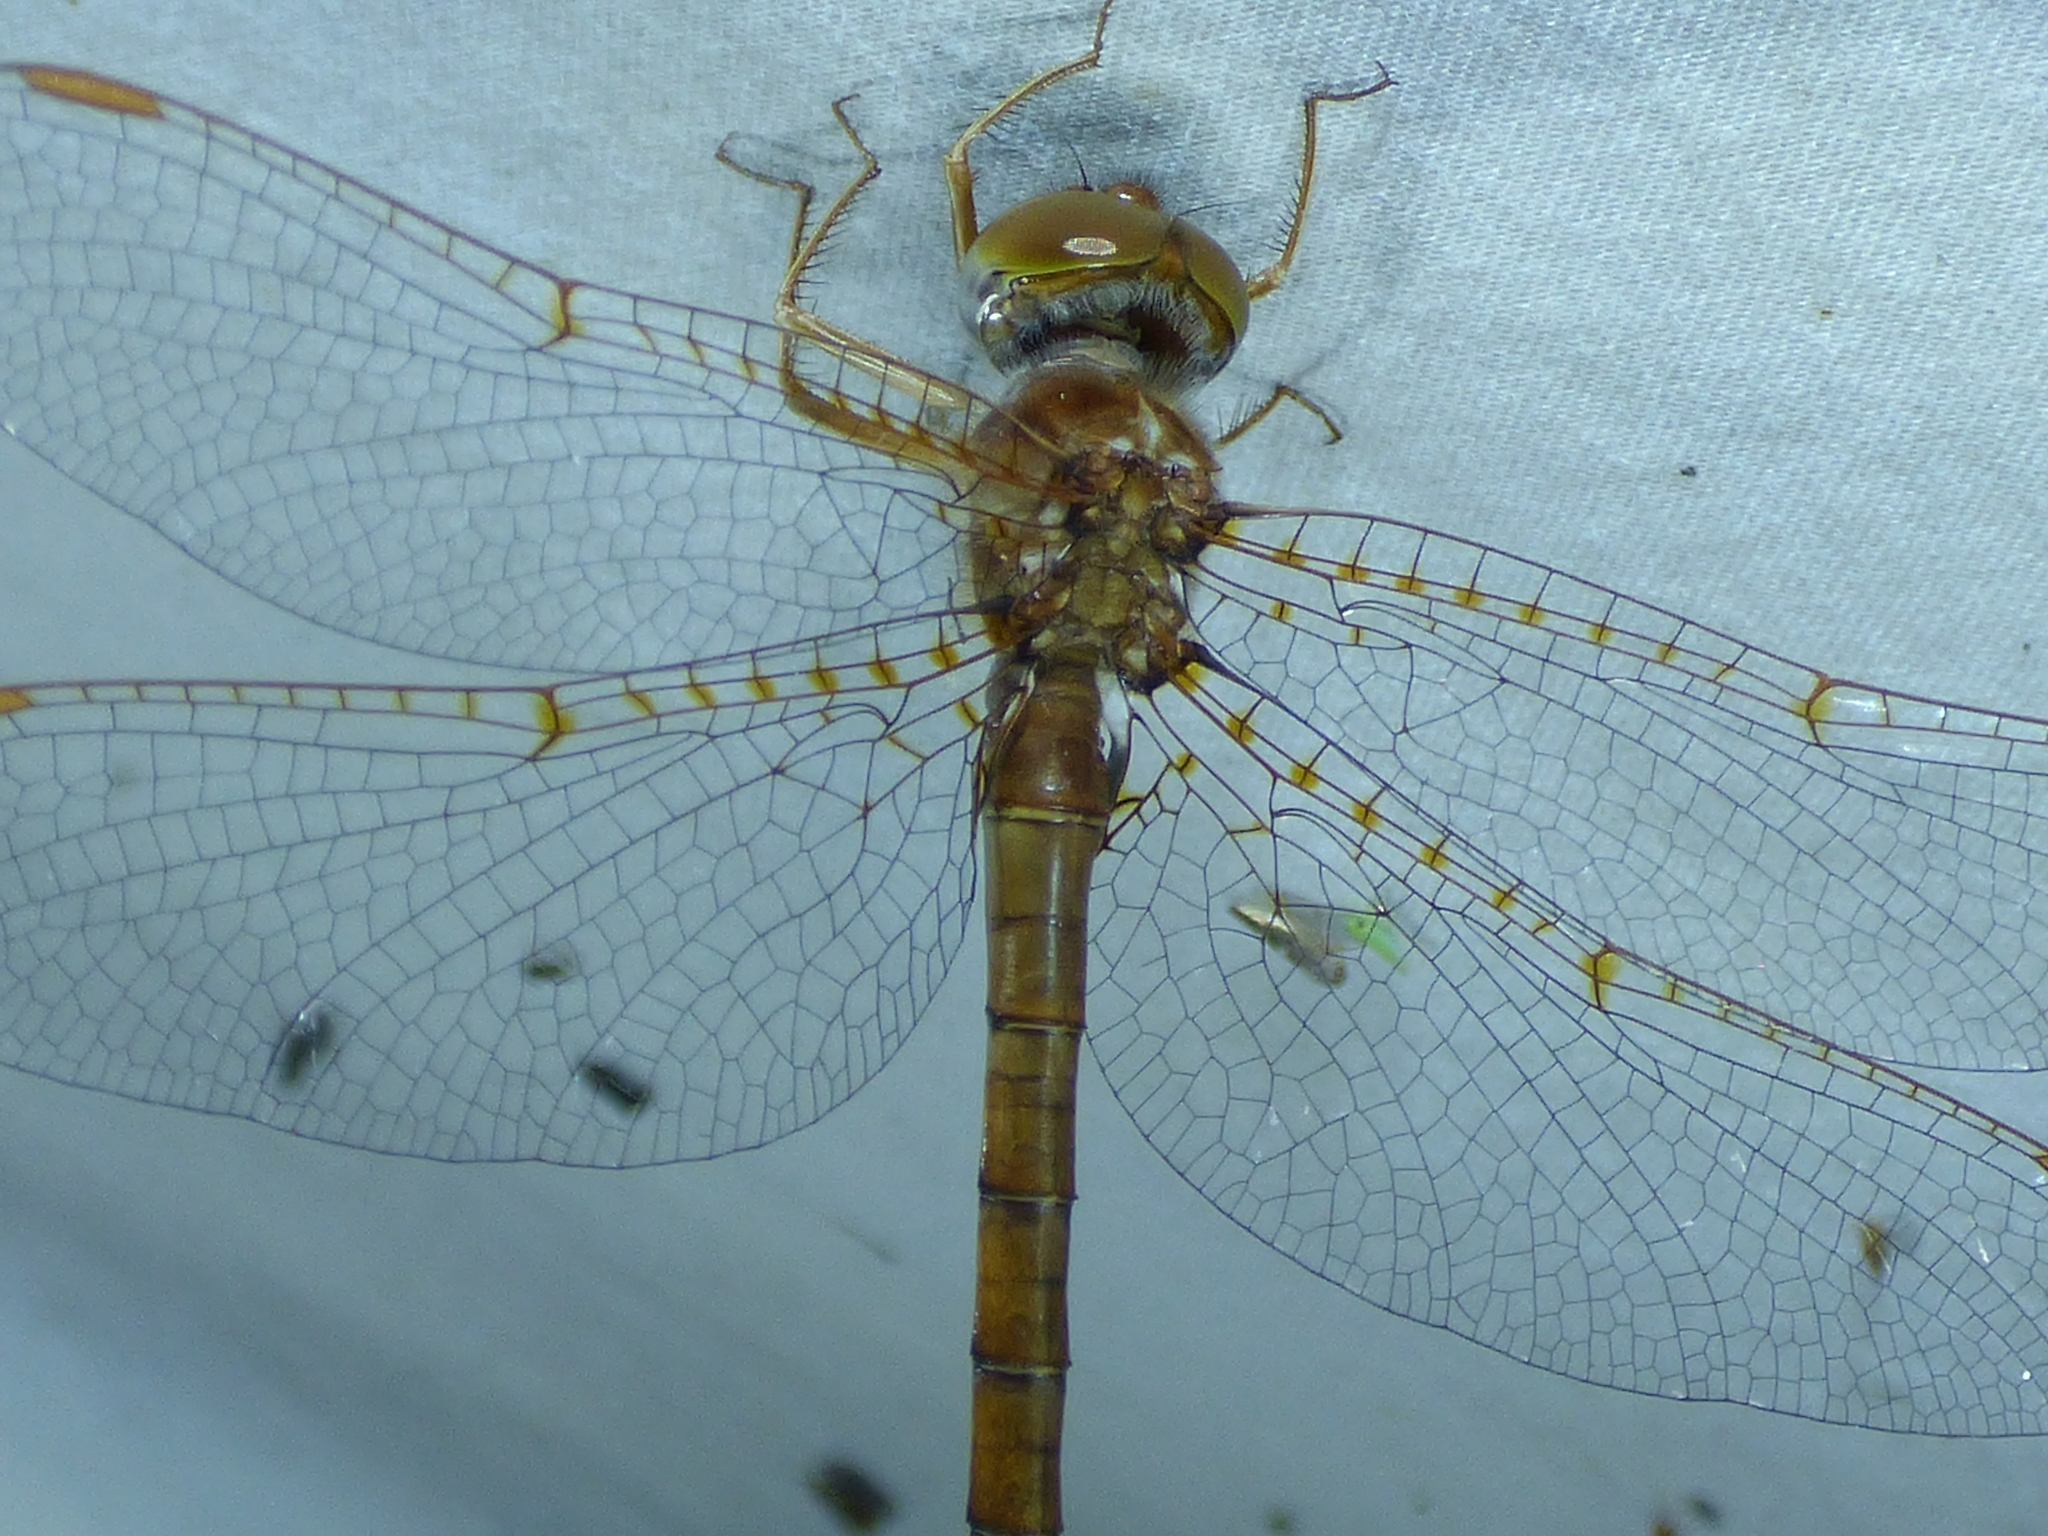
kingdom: Animalia
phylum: Arthropoda
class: Insecta
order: Odonata
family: Corduliidae
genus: Neurocordulia
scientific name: Neurocordulia alabamensis
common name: Alabama shadowdragon
